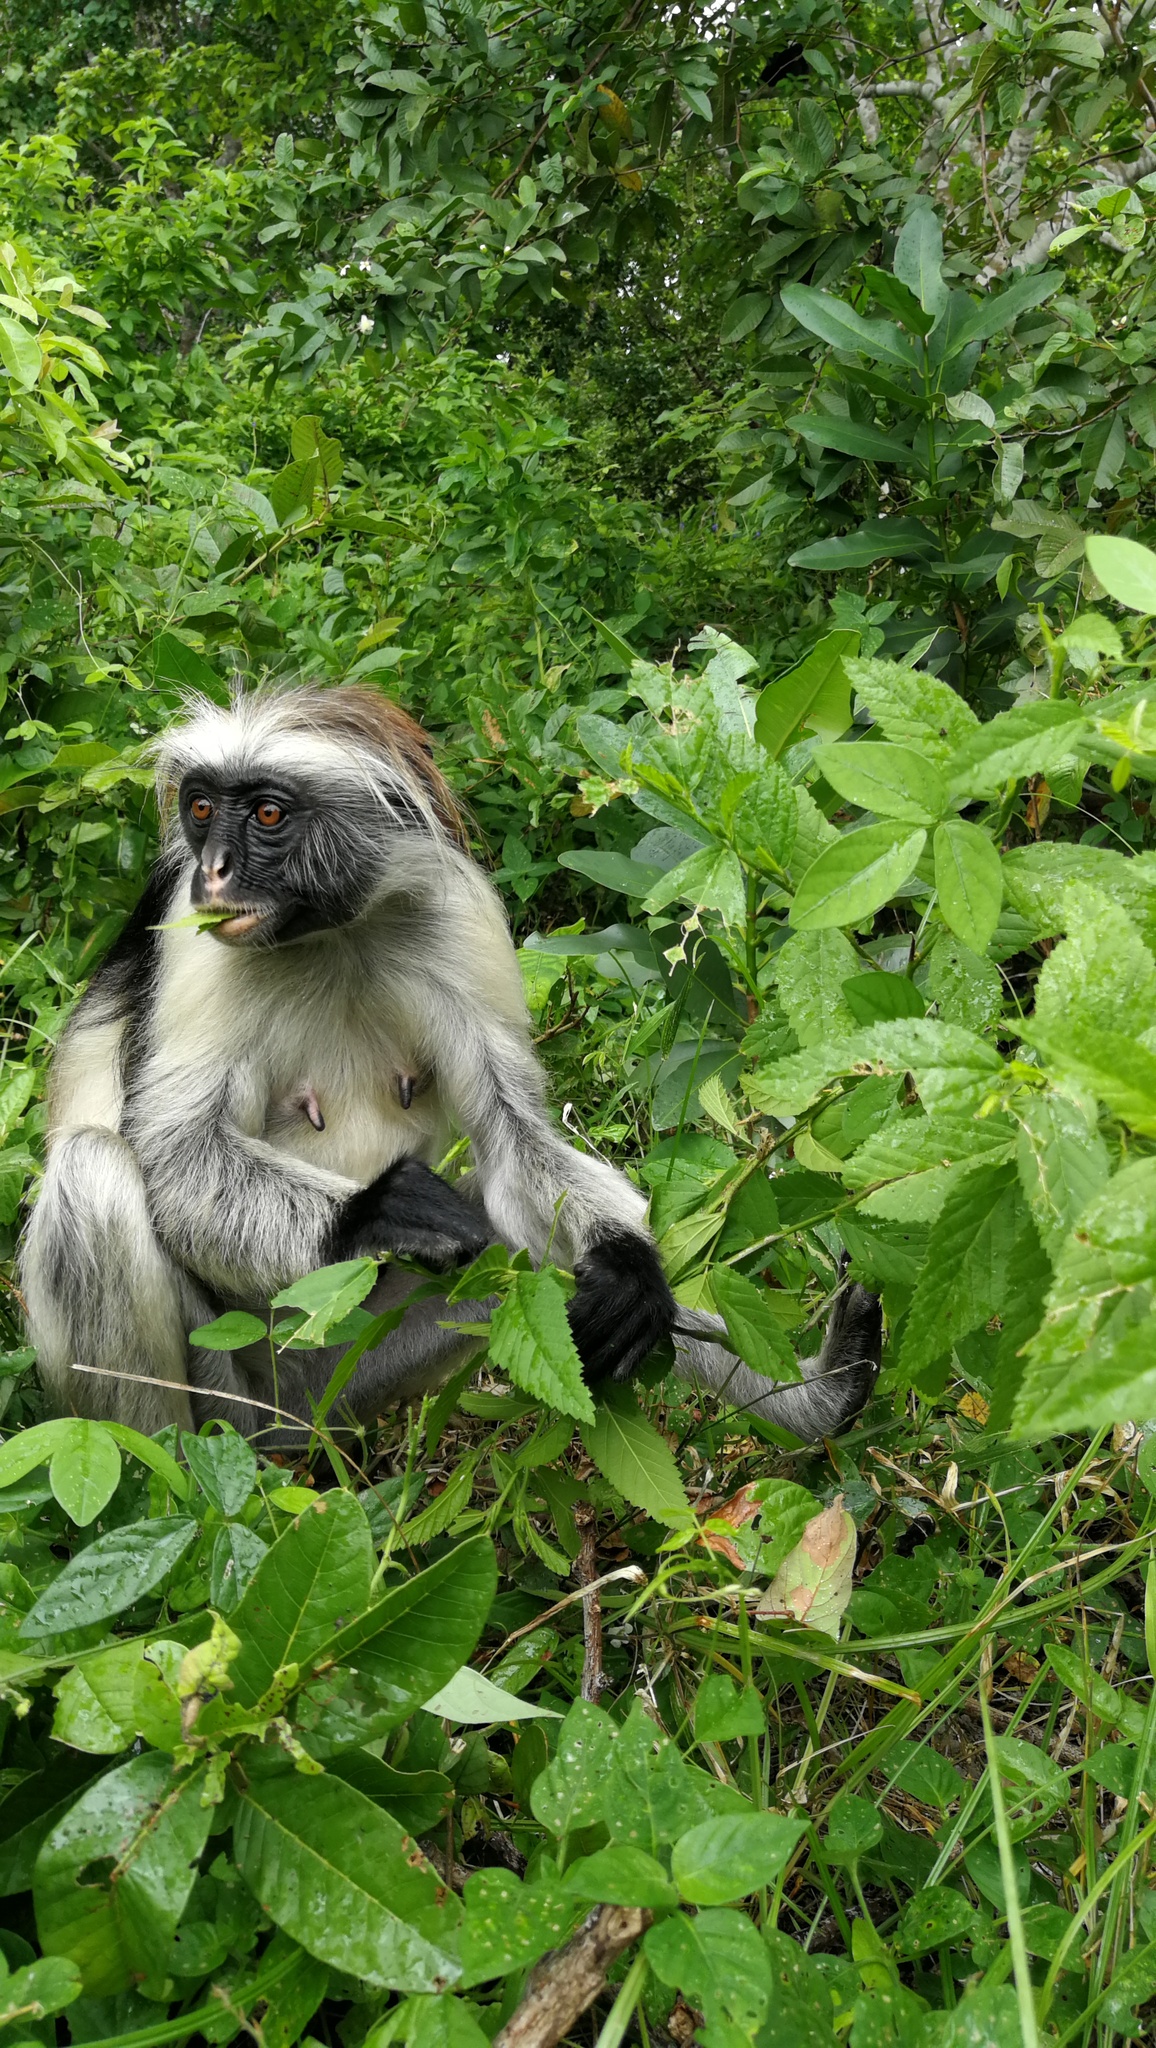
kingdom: Animalia
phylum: Chordata
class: Mammalia
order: Primates
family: Cercopithecidae
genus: Piliocolobus
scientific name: Piliocolobus kirkii
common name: Zanzibar red colobus
